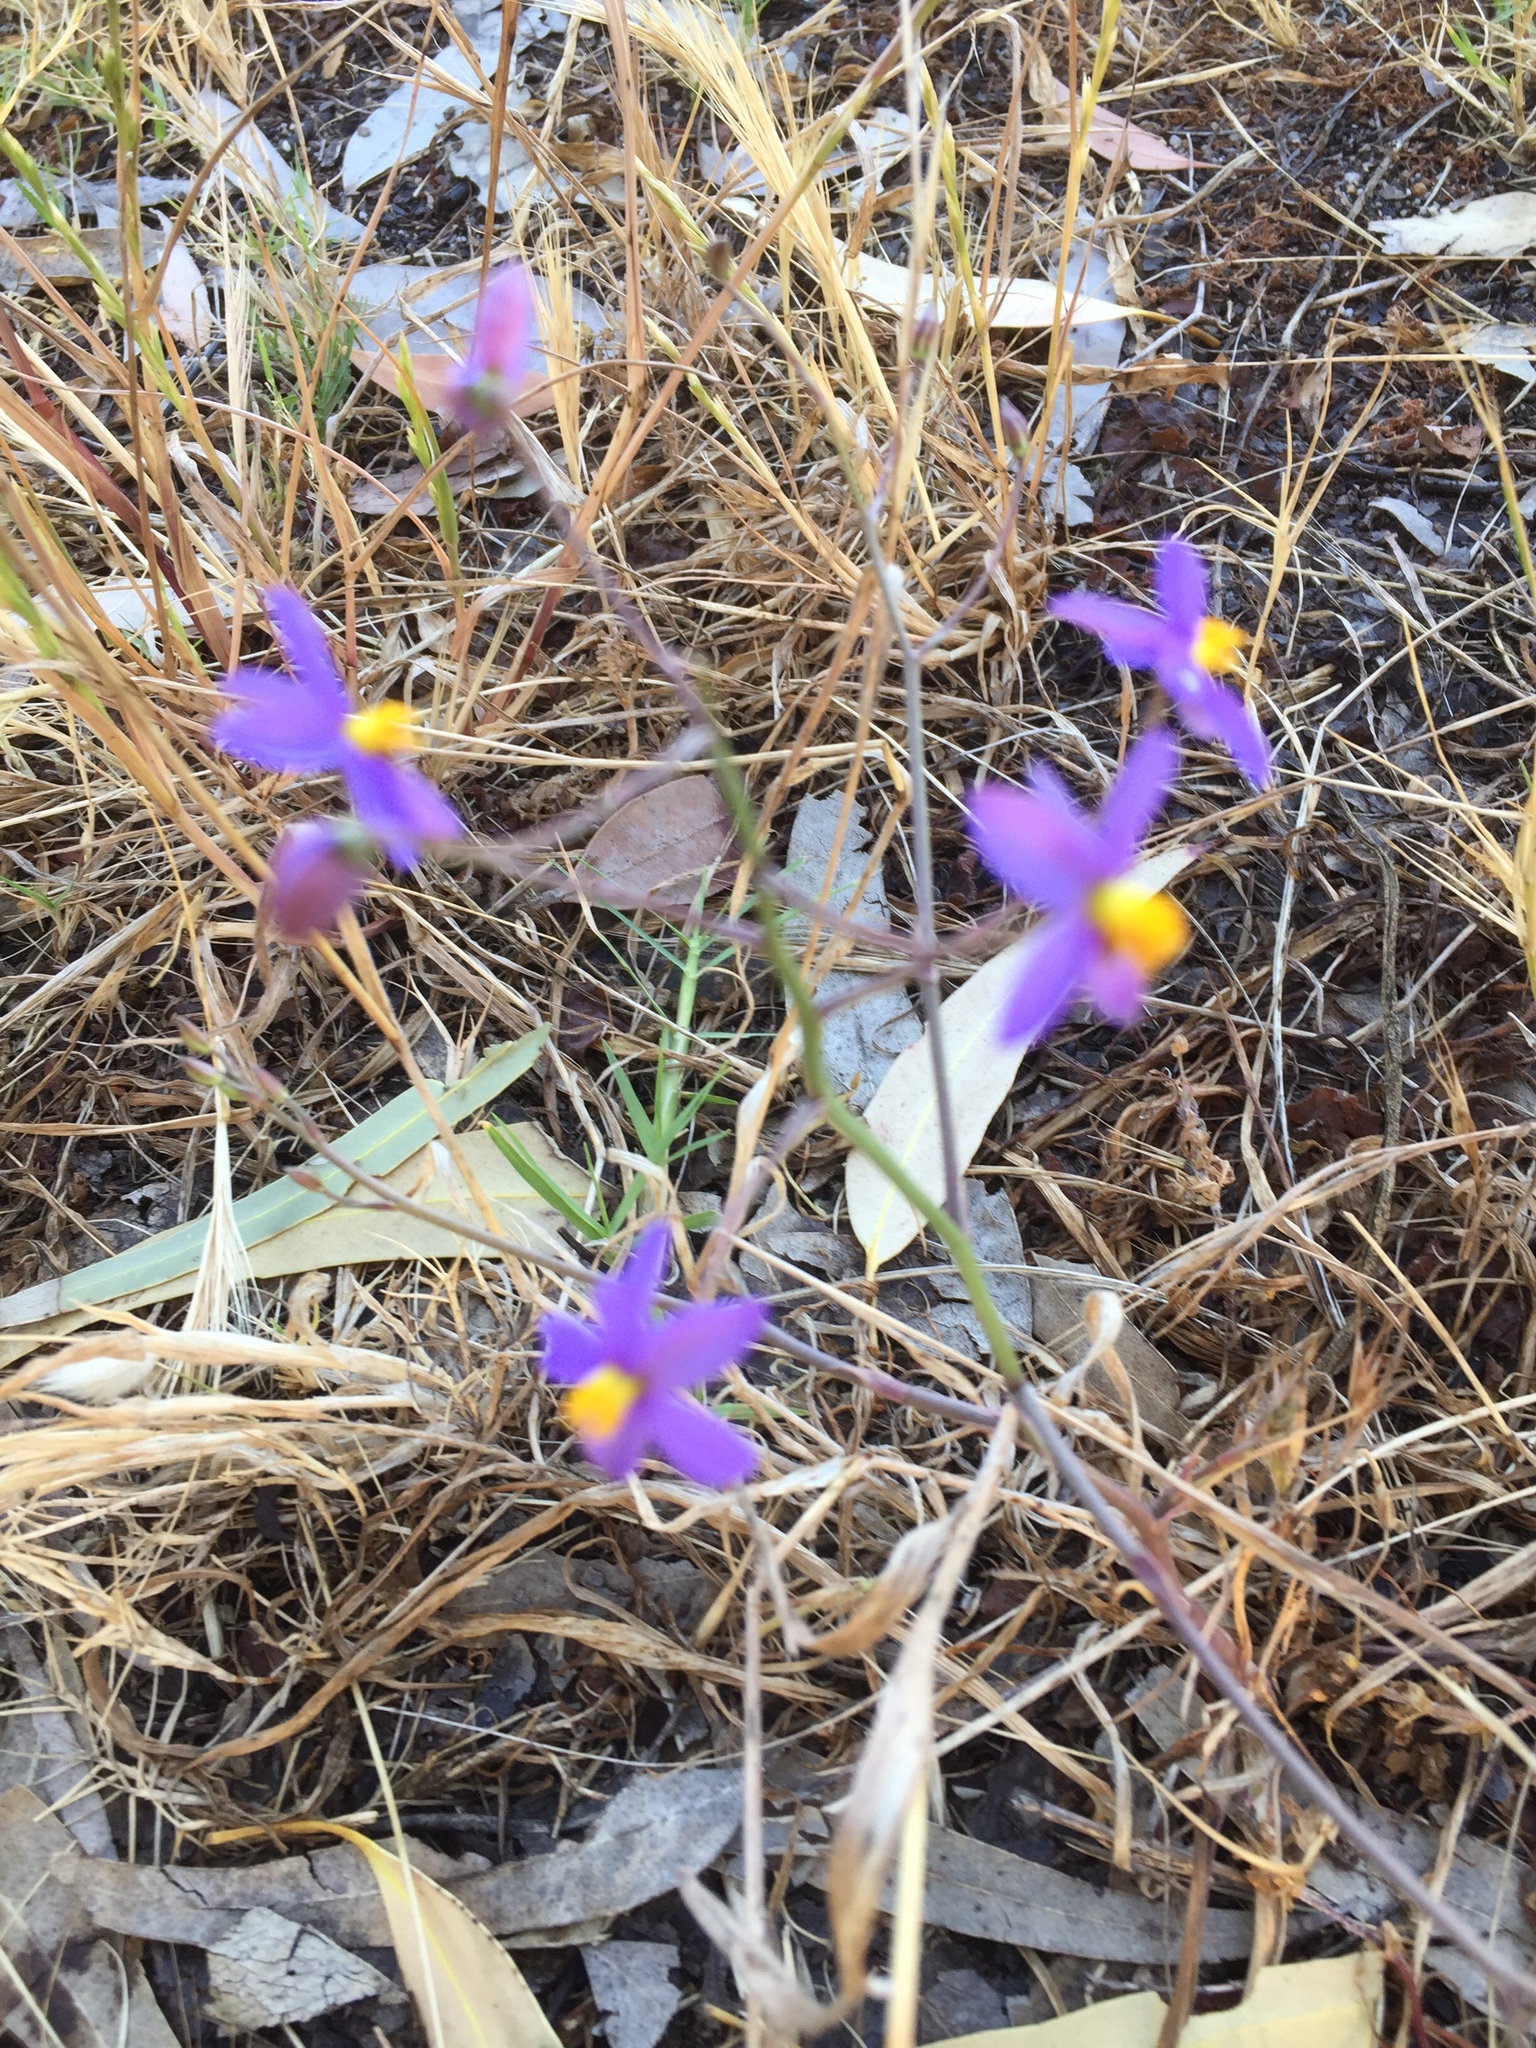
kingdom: Plantae
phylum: Tracheophyta
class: Liliopsida
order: Asparagales
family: Tecophilaeaceae
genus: Cyanella
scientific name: Cyanella hyacinthoides
